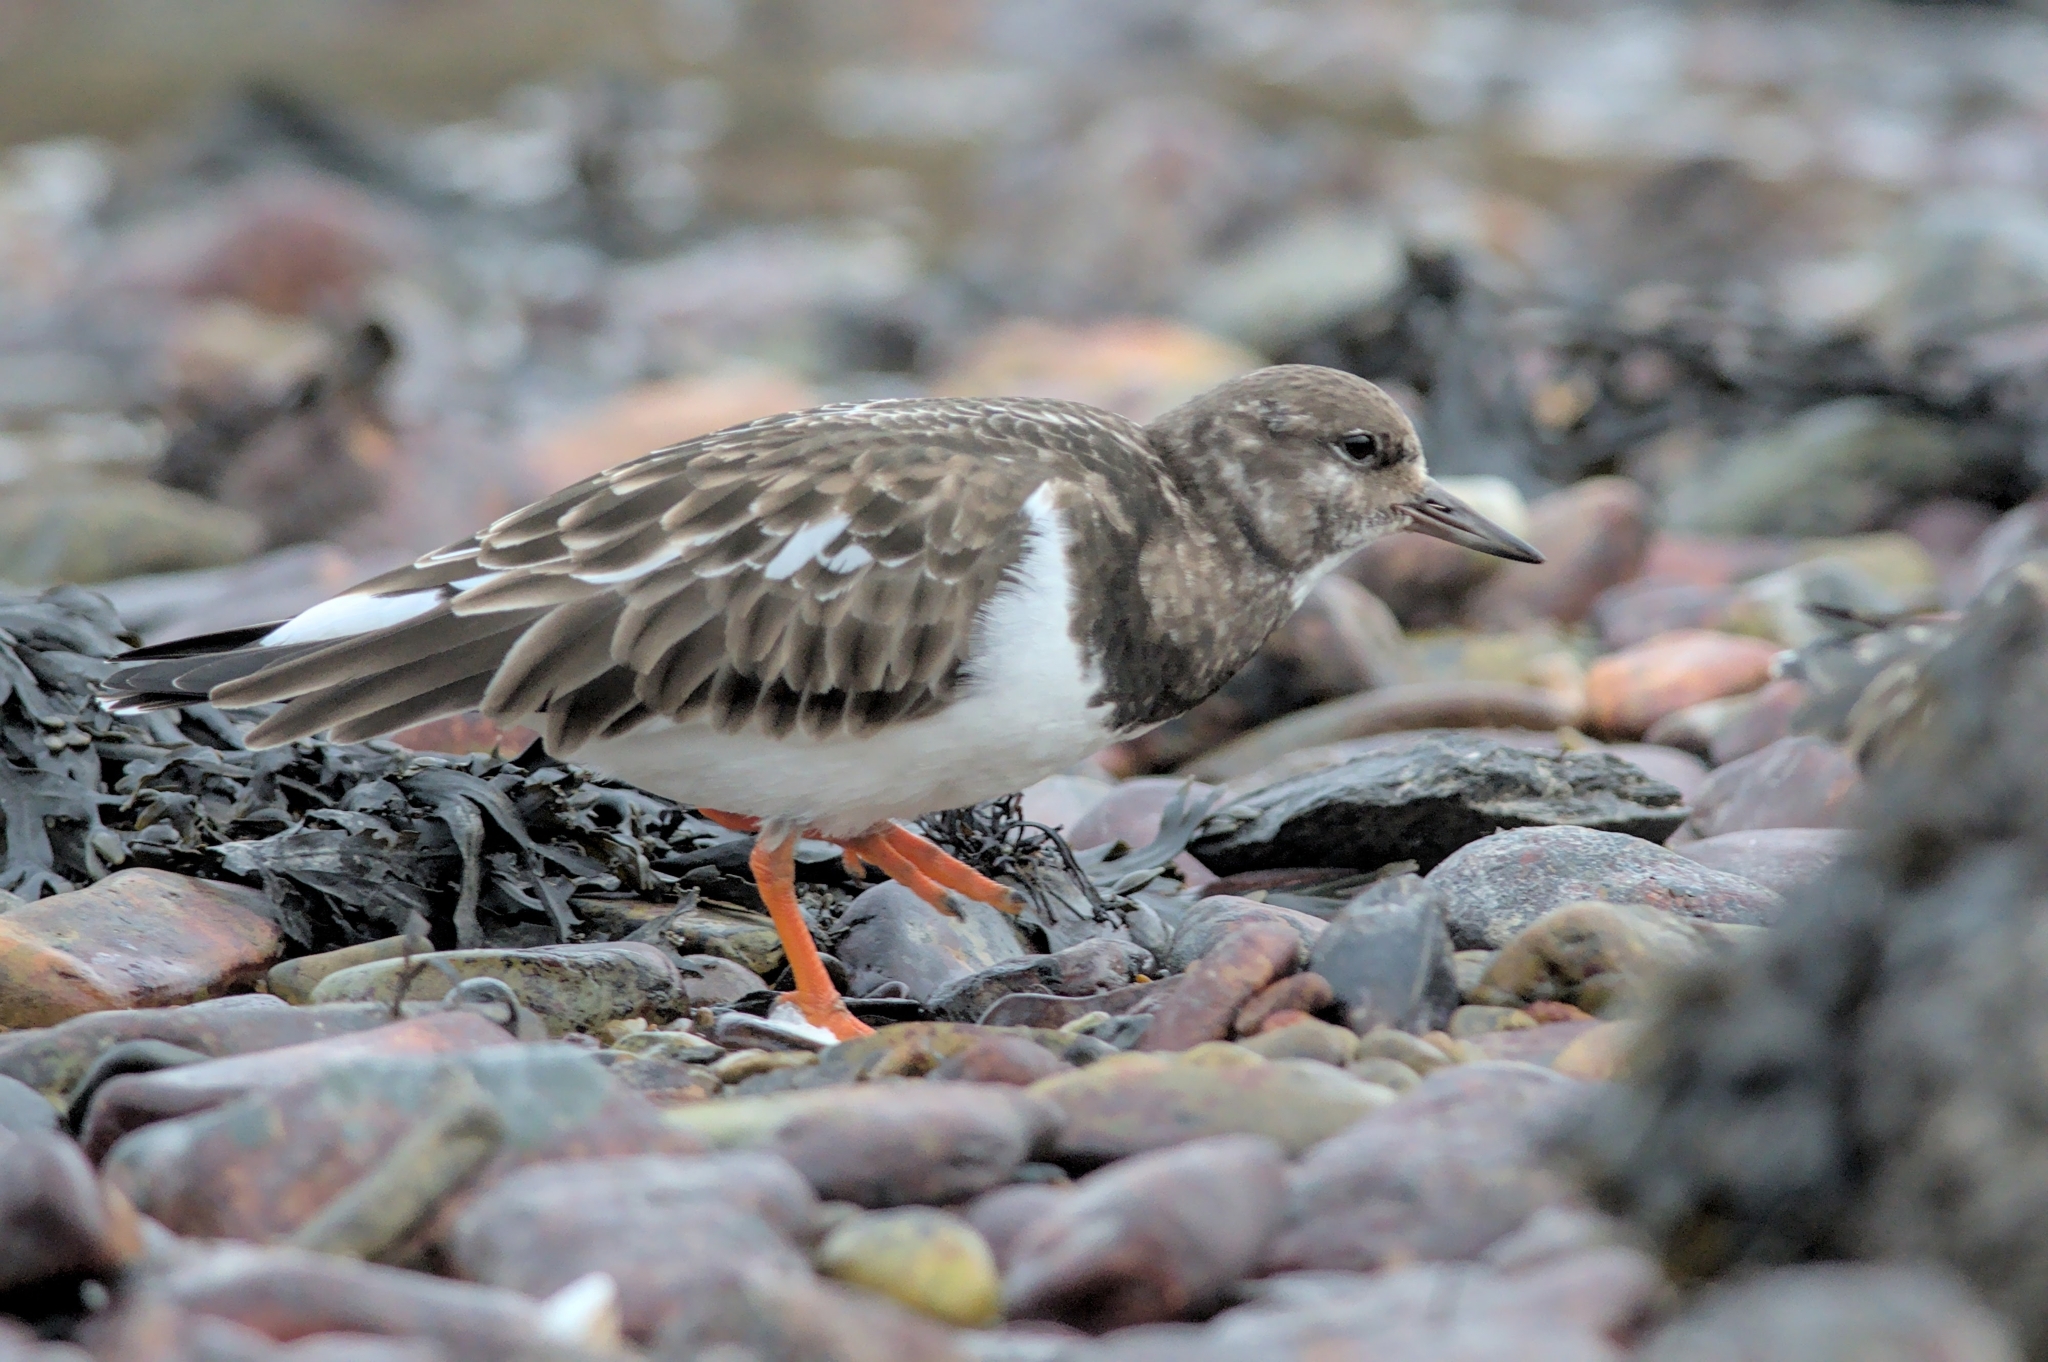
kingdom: Animalia
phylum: Chordata
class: Aves
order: Charadriiformes
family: Scolopacidae
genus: Arenaria
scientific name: Arenaria interpres
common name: Ruddy turnstone
